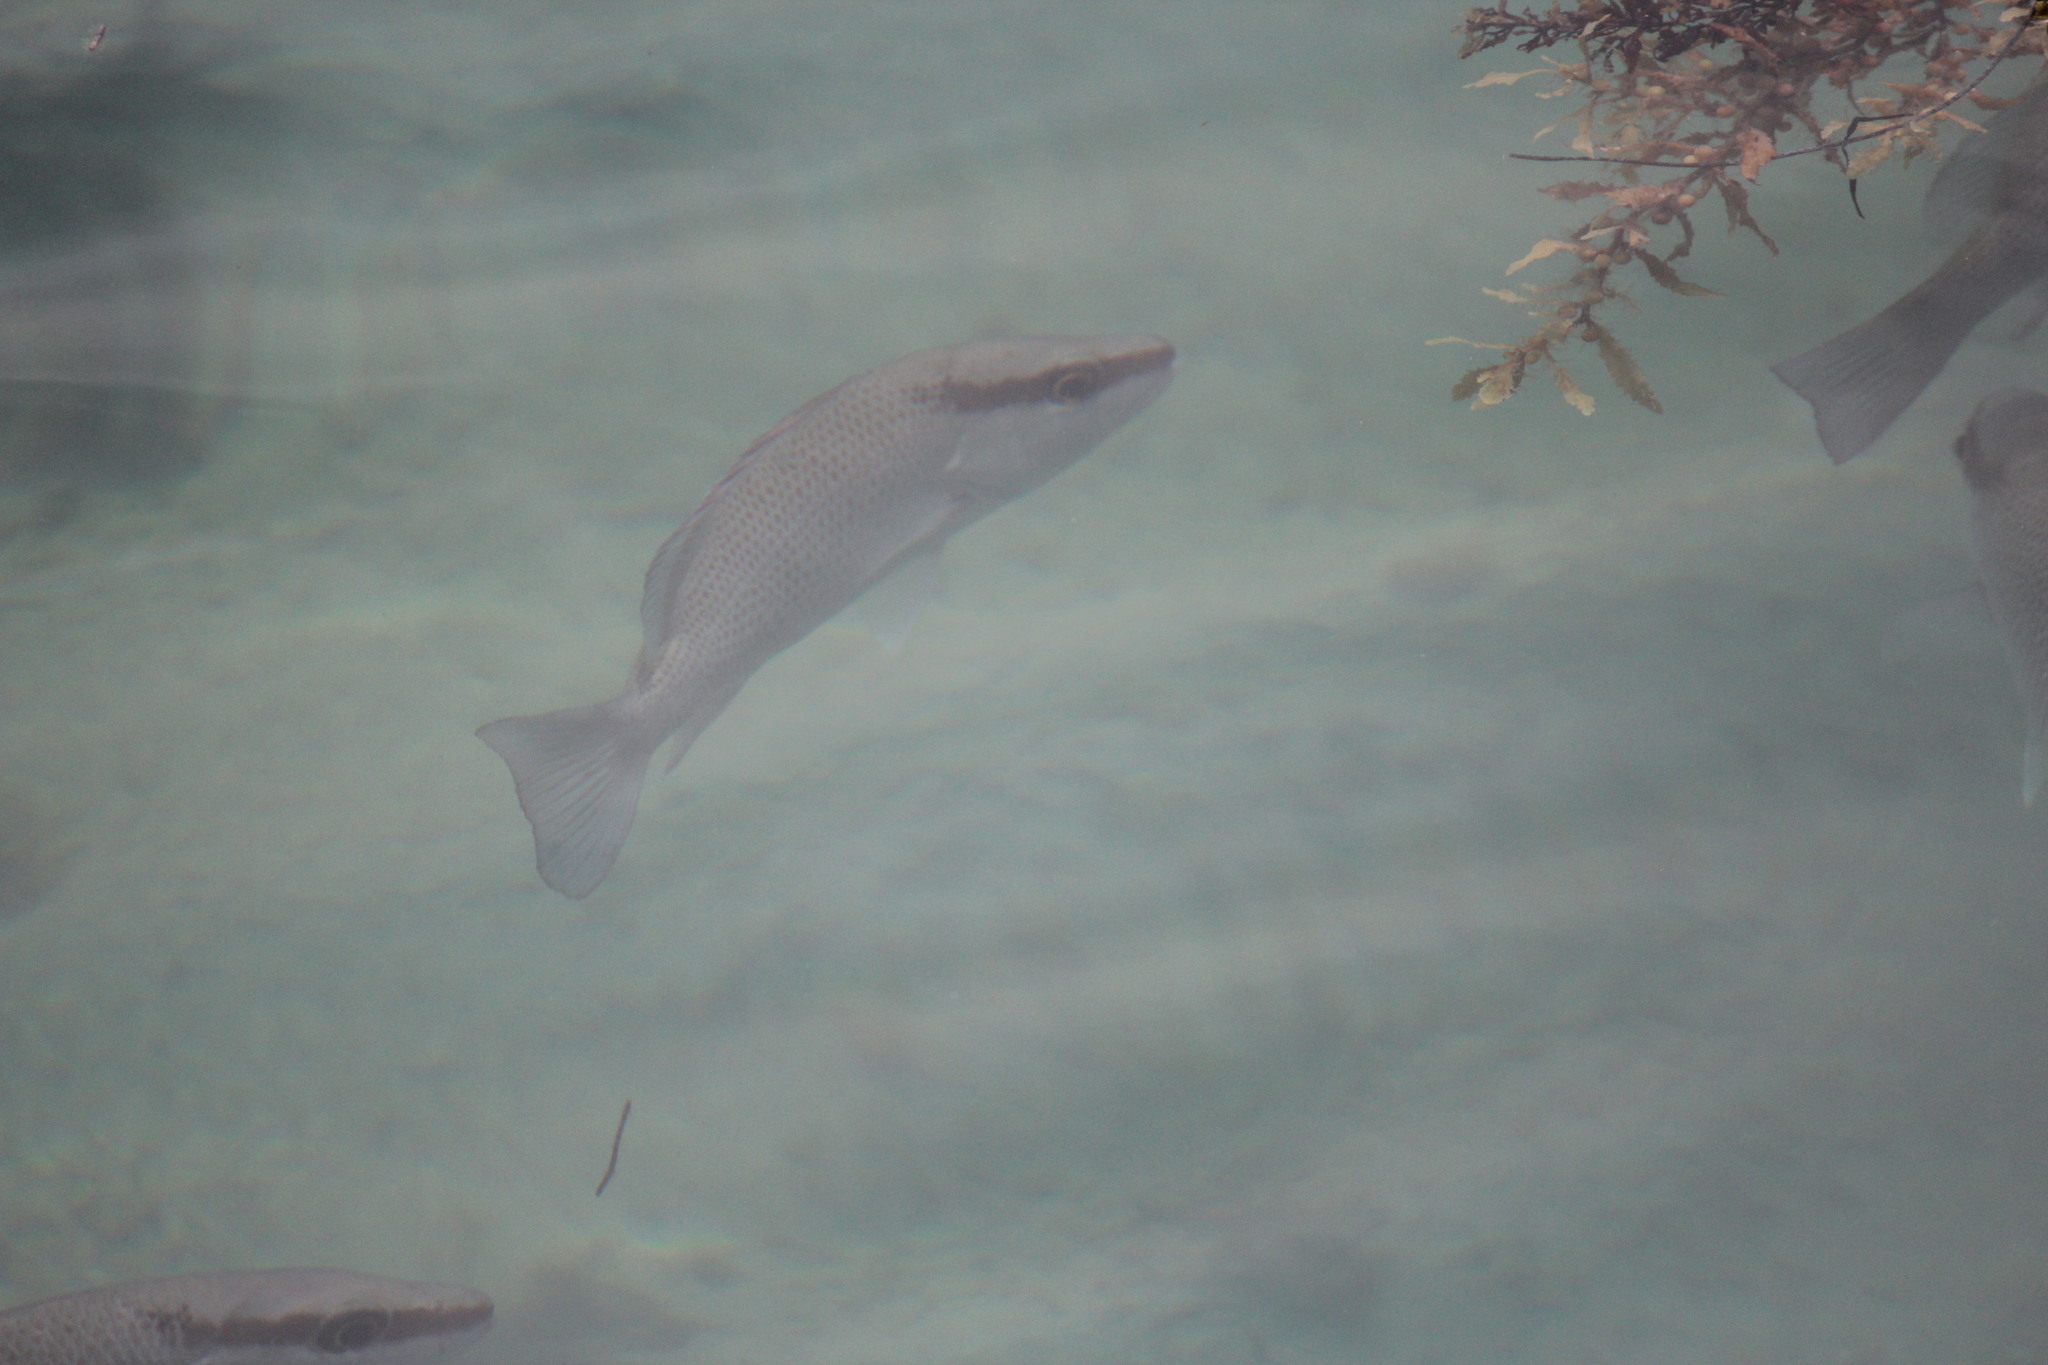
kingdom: Animalia
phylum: Chordata
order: Perciformes
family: Lutjanidae
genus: Lutjanus
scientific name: Lutjanus griseus
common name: Gray snapper
